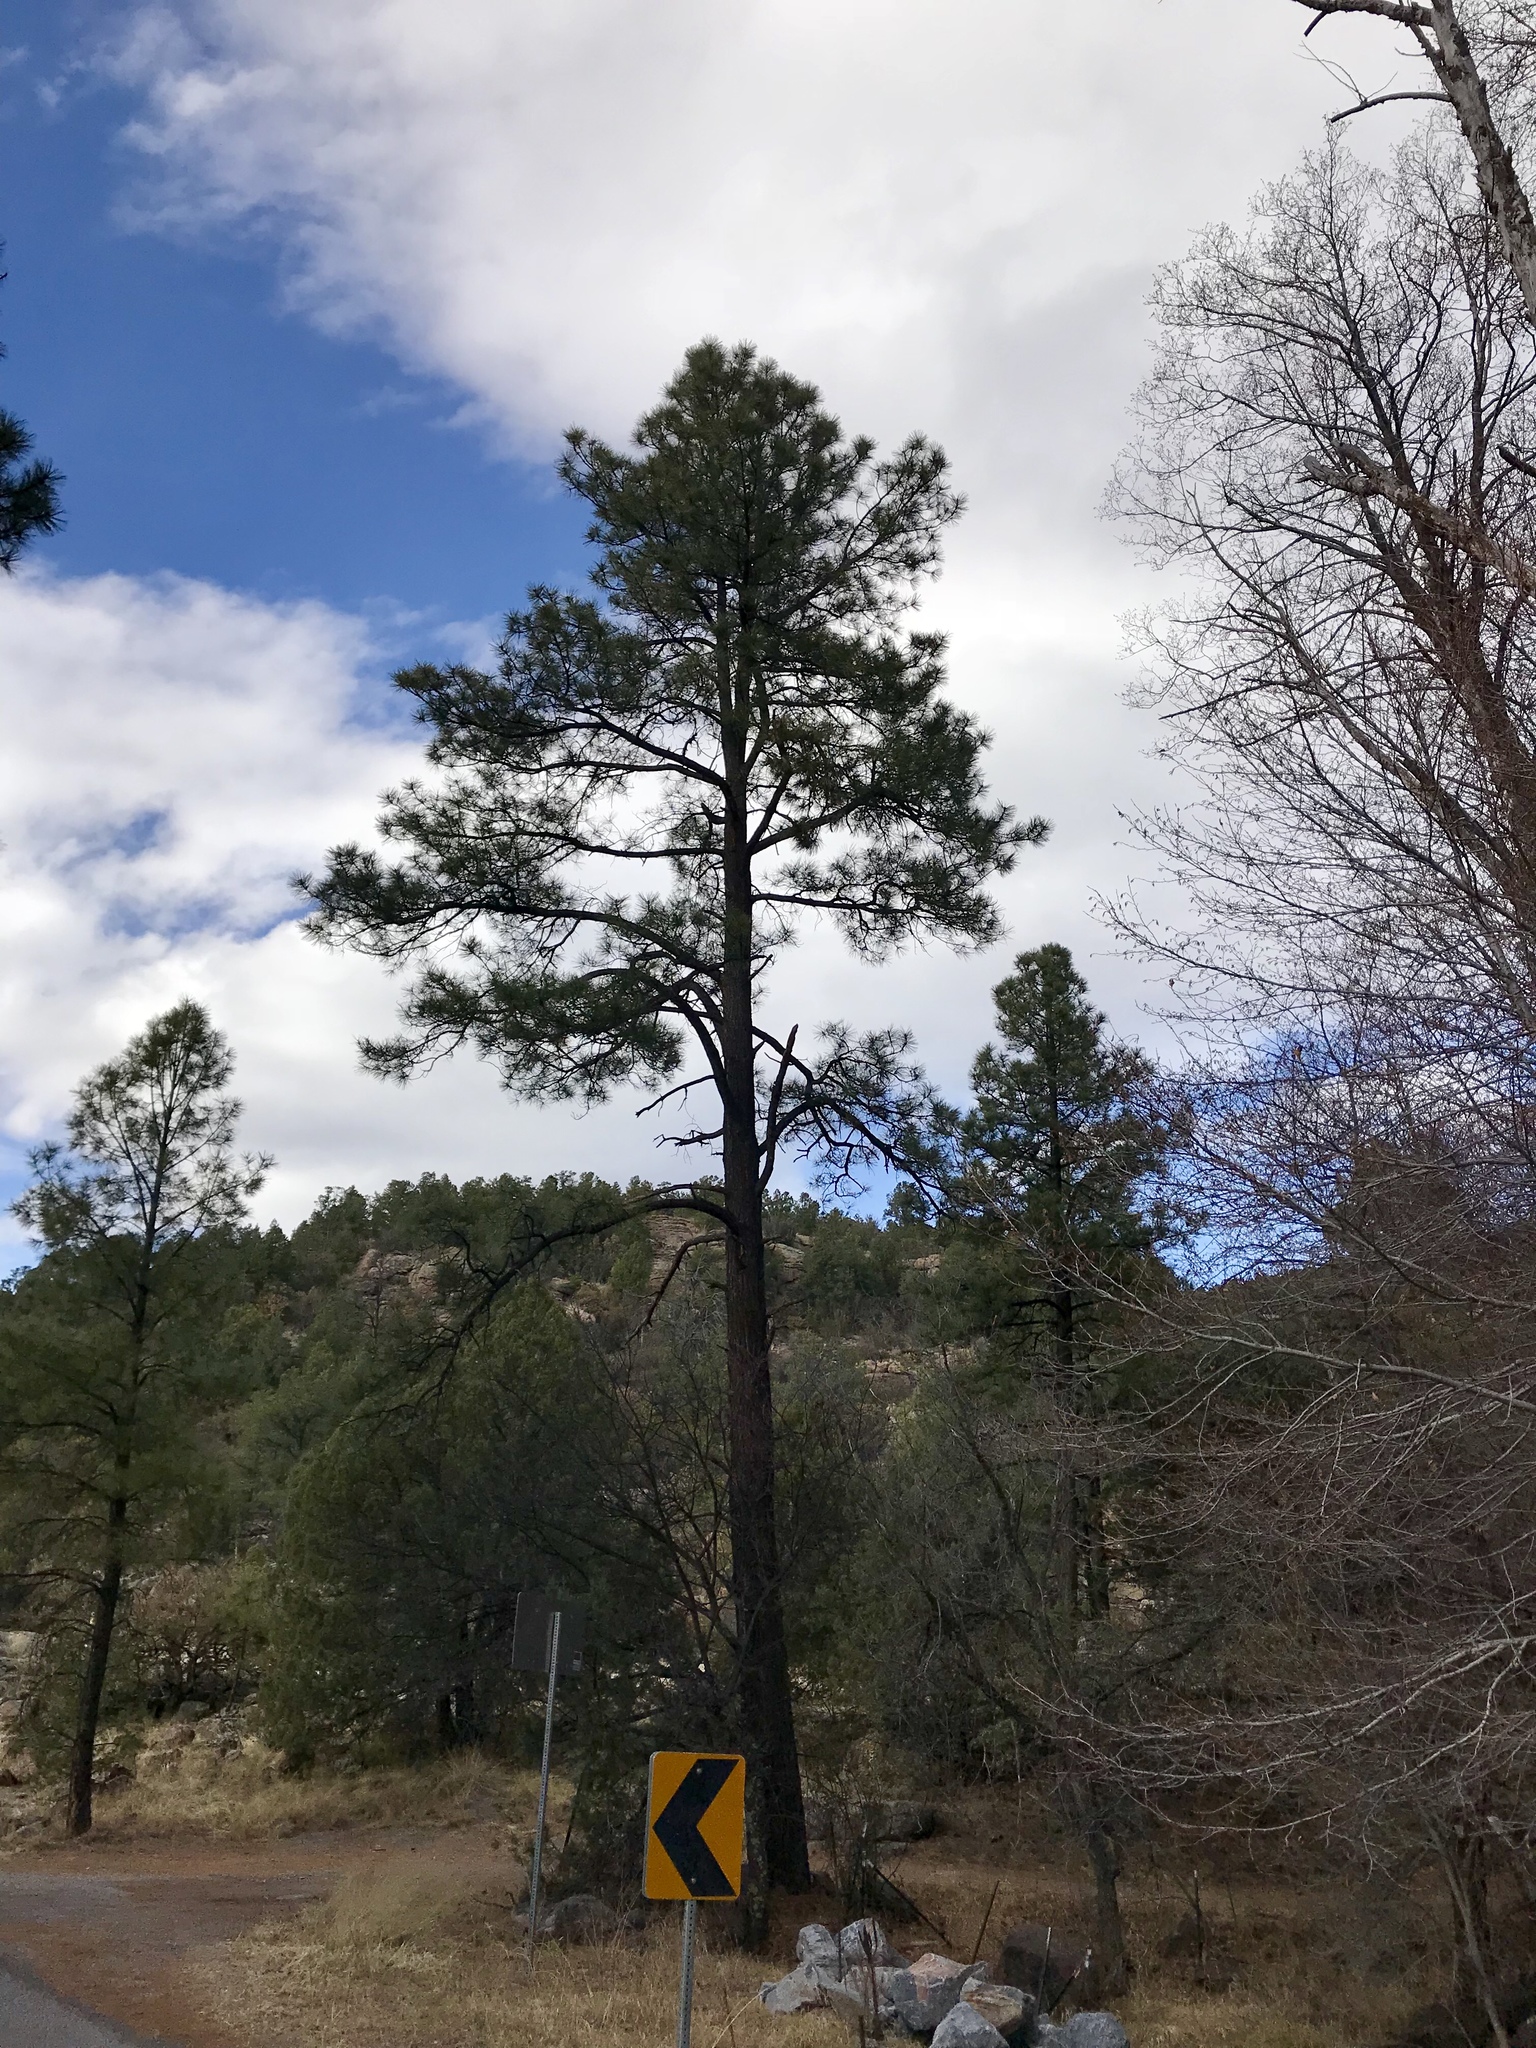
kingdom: Plantae
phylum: Tracheophyta
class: Pinopsida
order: Pinales
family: Pinaceae
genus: Pinus
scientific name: Pinus ponderosa
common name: Western yellow-pine
